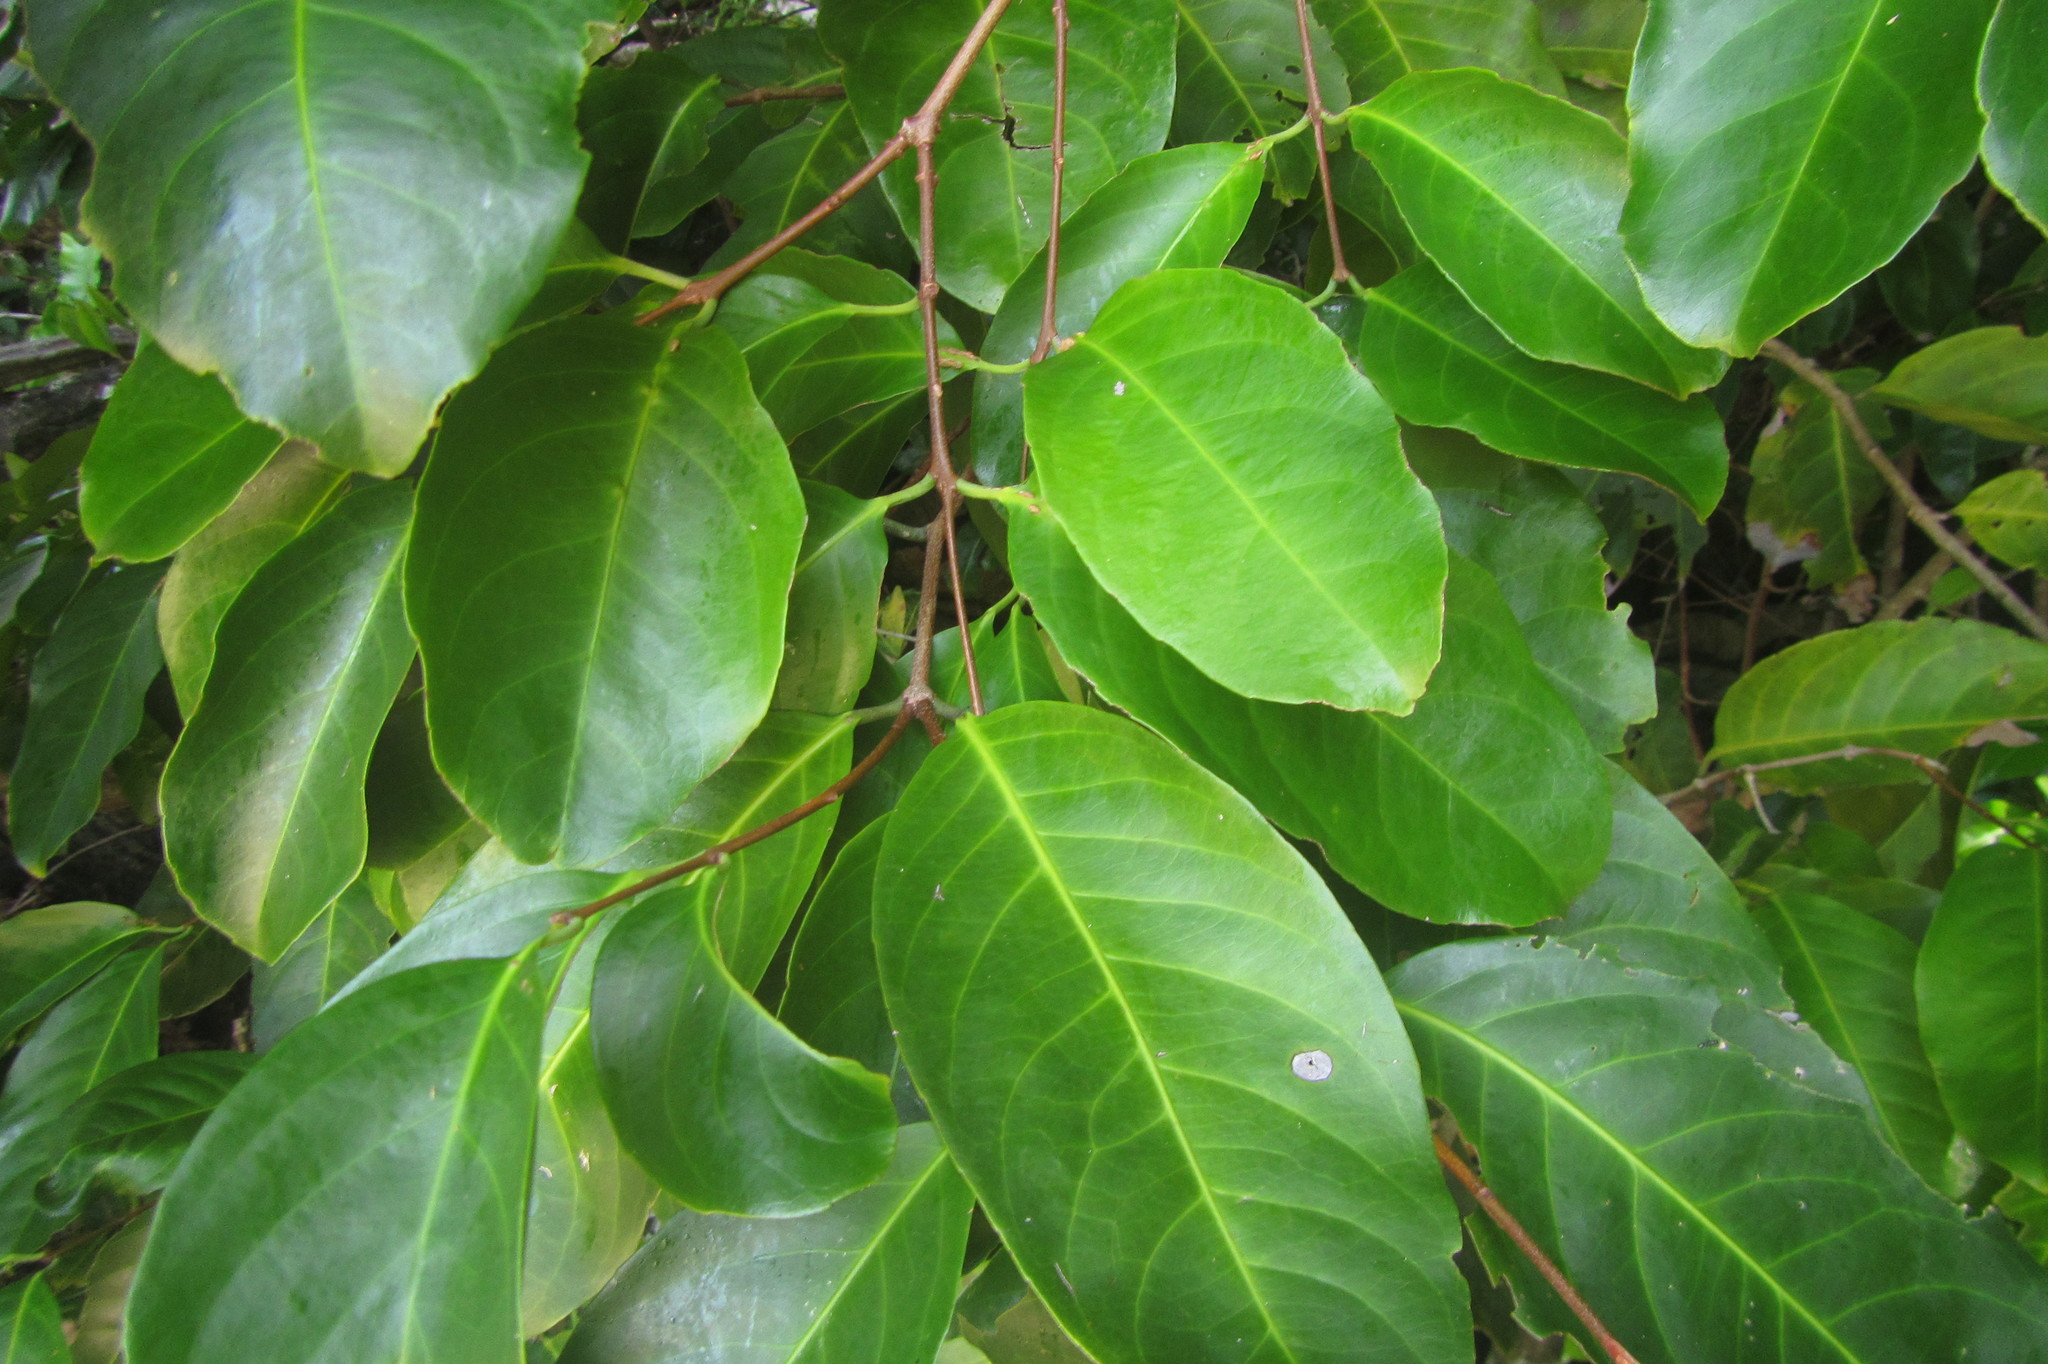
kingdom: Plantae
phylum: Tracheophyta
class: Magnoliopsida
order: Celastrales
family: Celastraceae
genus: Salacia
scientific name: Salacia chinensis
